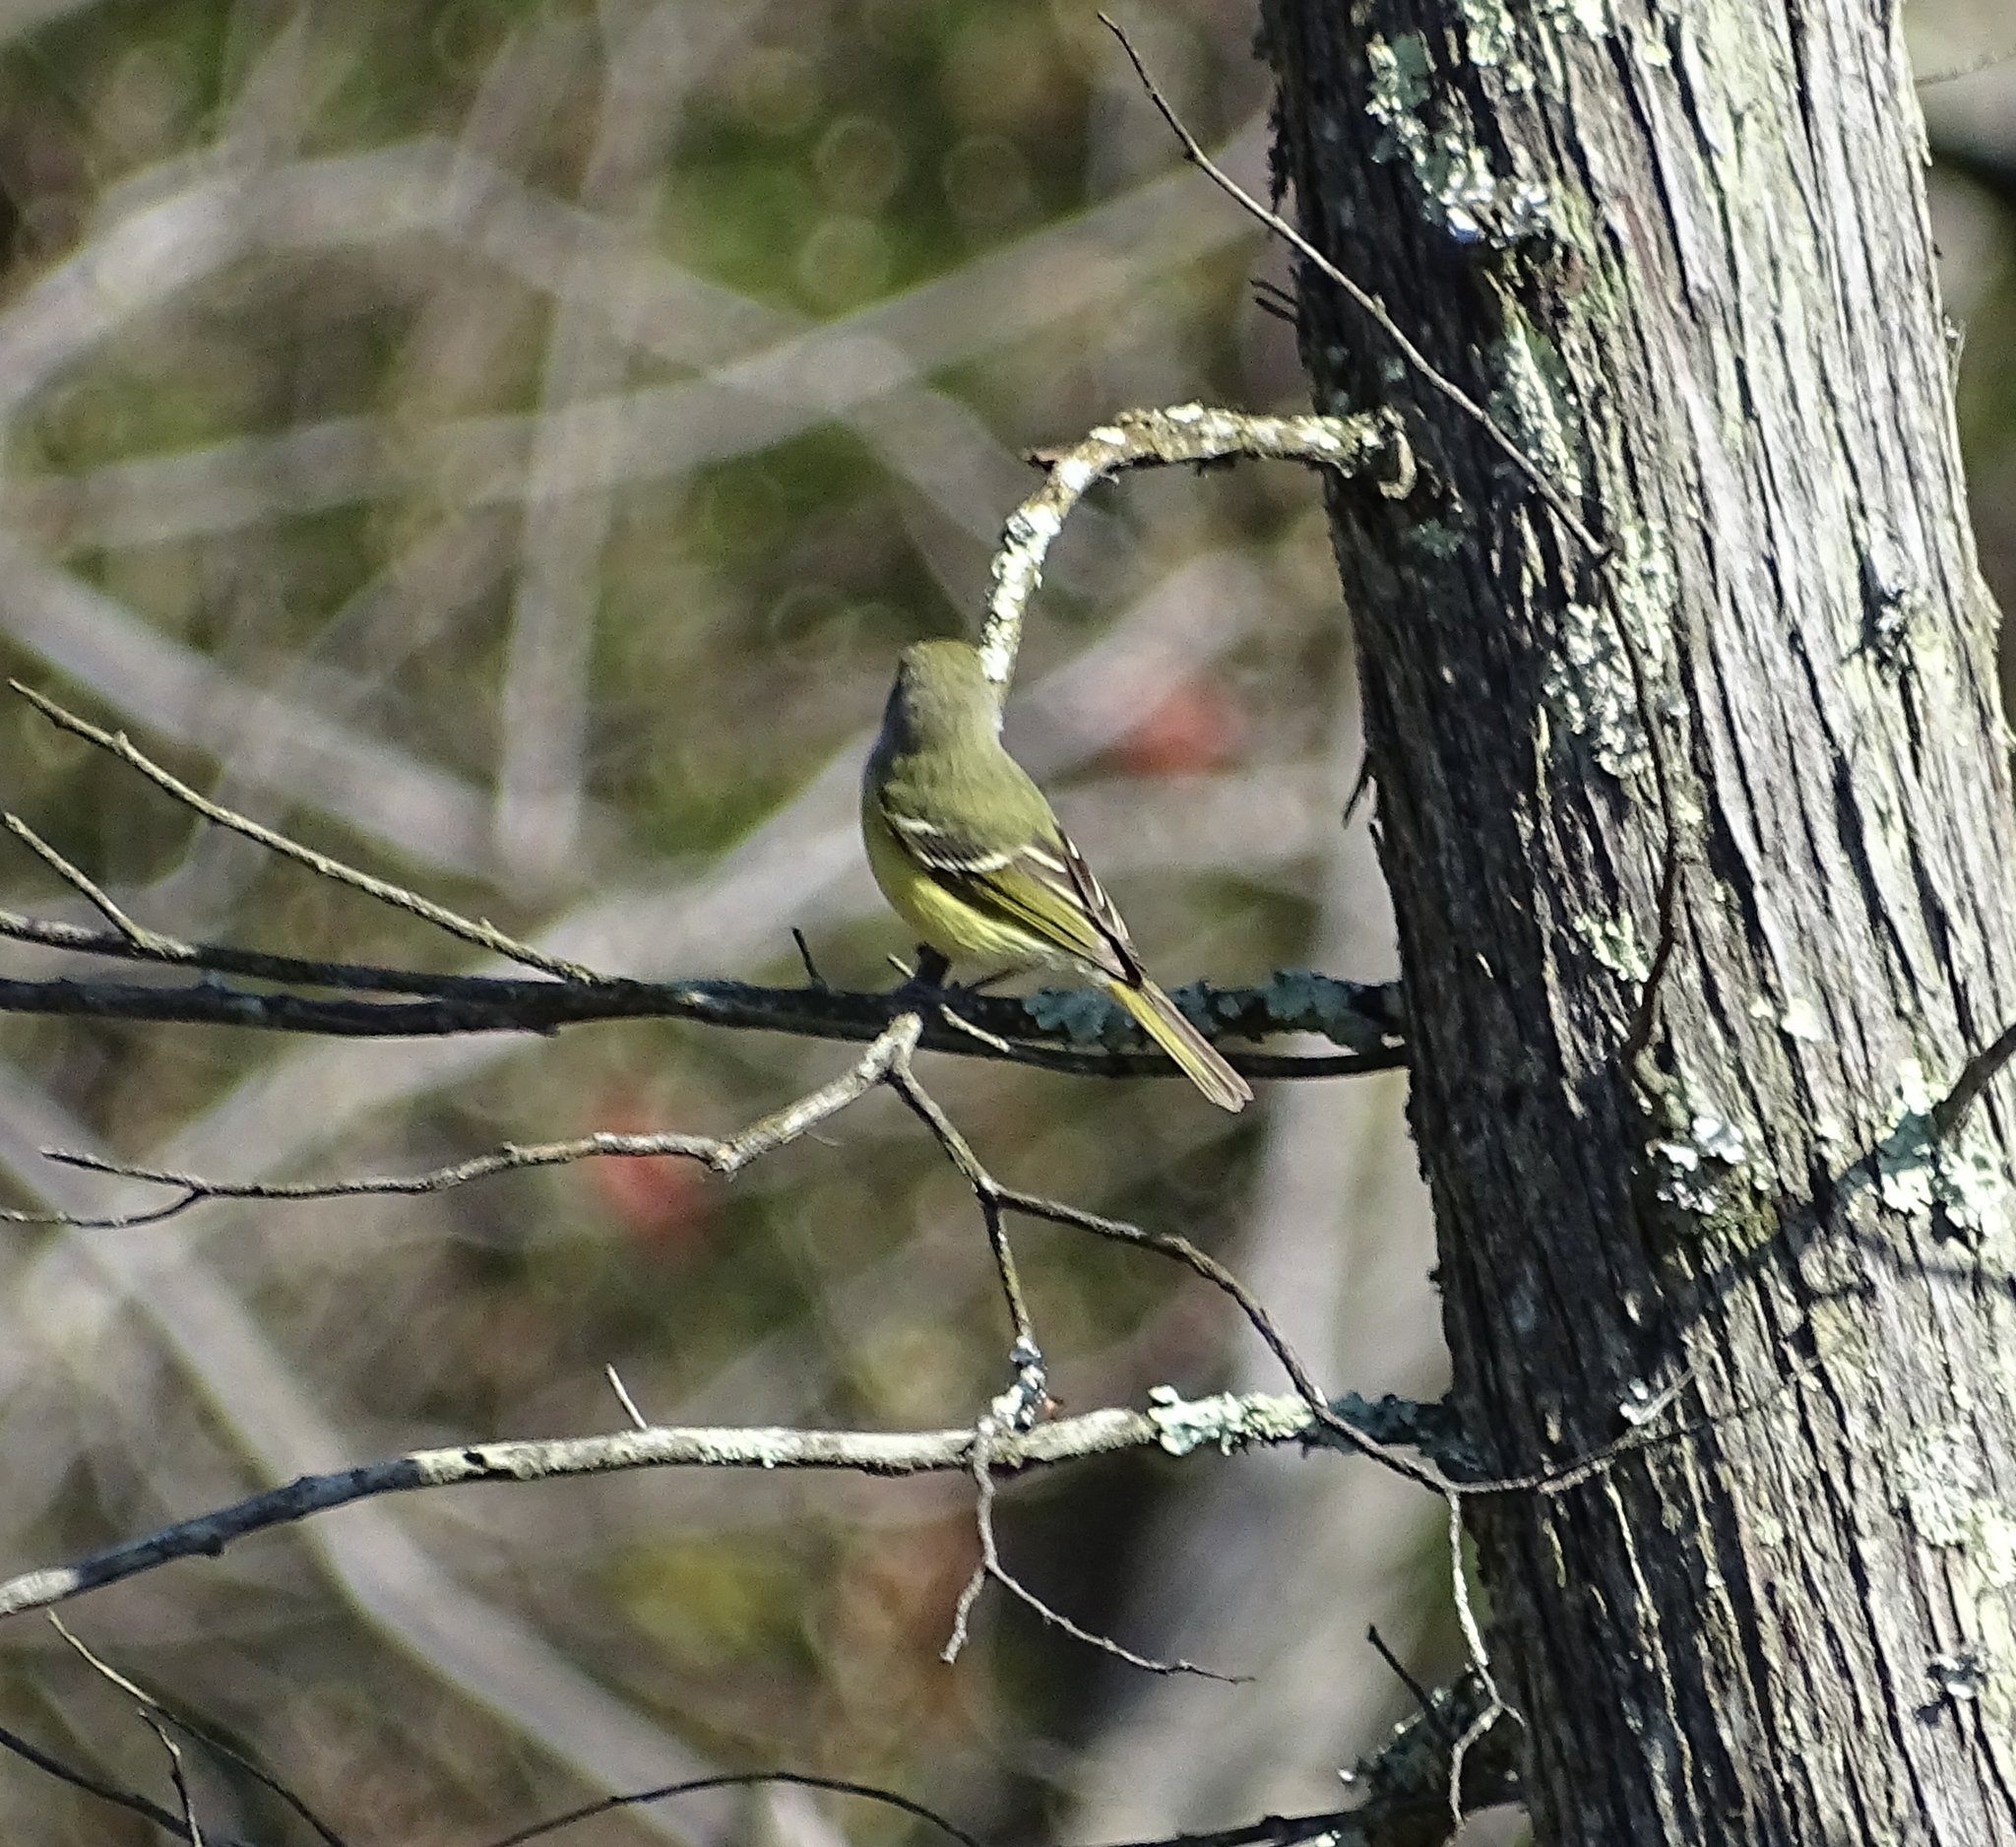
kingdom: Animalia
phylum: Chordata
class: Aves
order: Passeriformes
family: Vireonidae
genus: Vireo
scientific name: Vireo griseus
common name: White-eyed vireo
